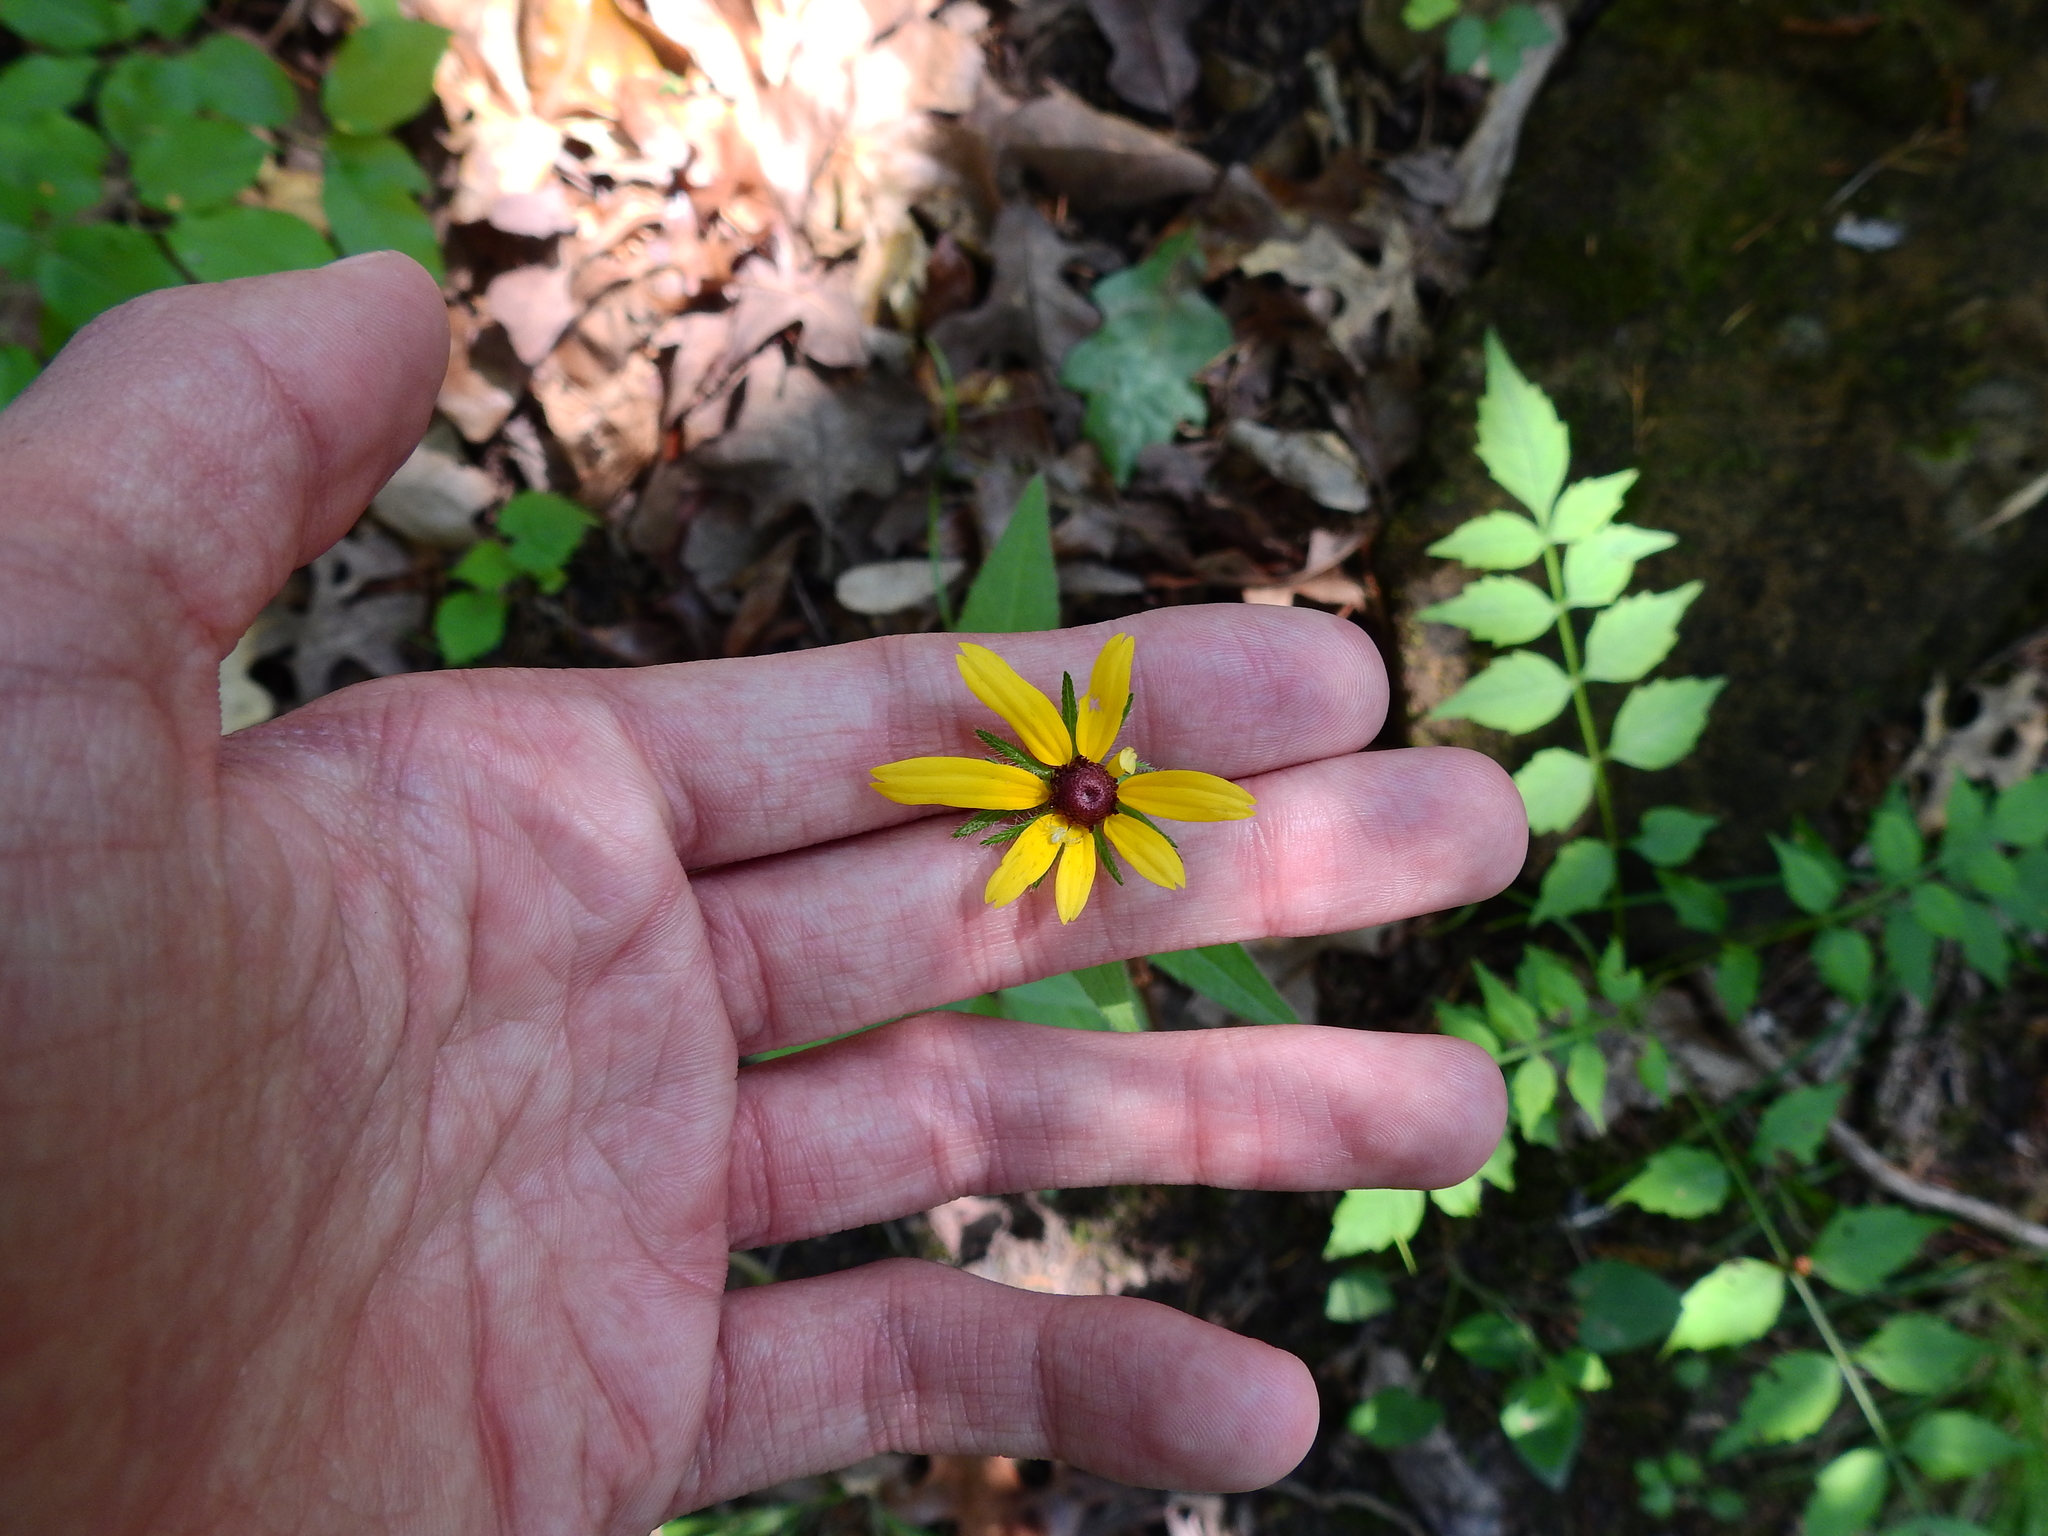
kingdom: Plantae
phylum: Tracheophyta
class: Magnoliopsida
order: Asterales
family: Asteraceae
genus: Rudbeckia
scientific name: Rudbeckia hirta
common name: Black-eyed-susan
